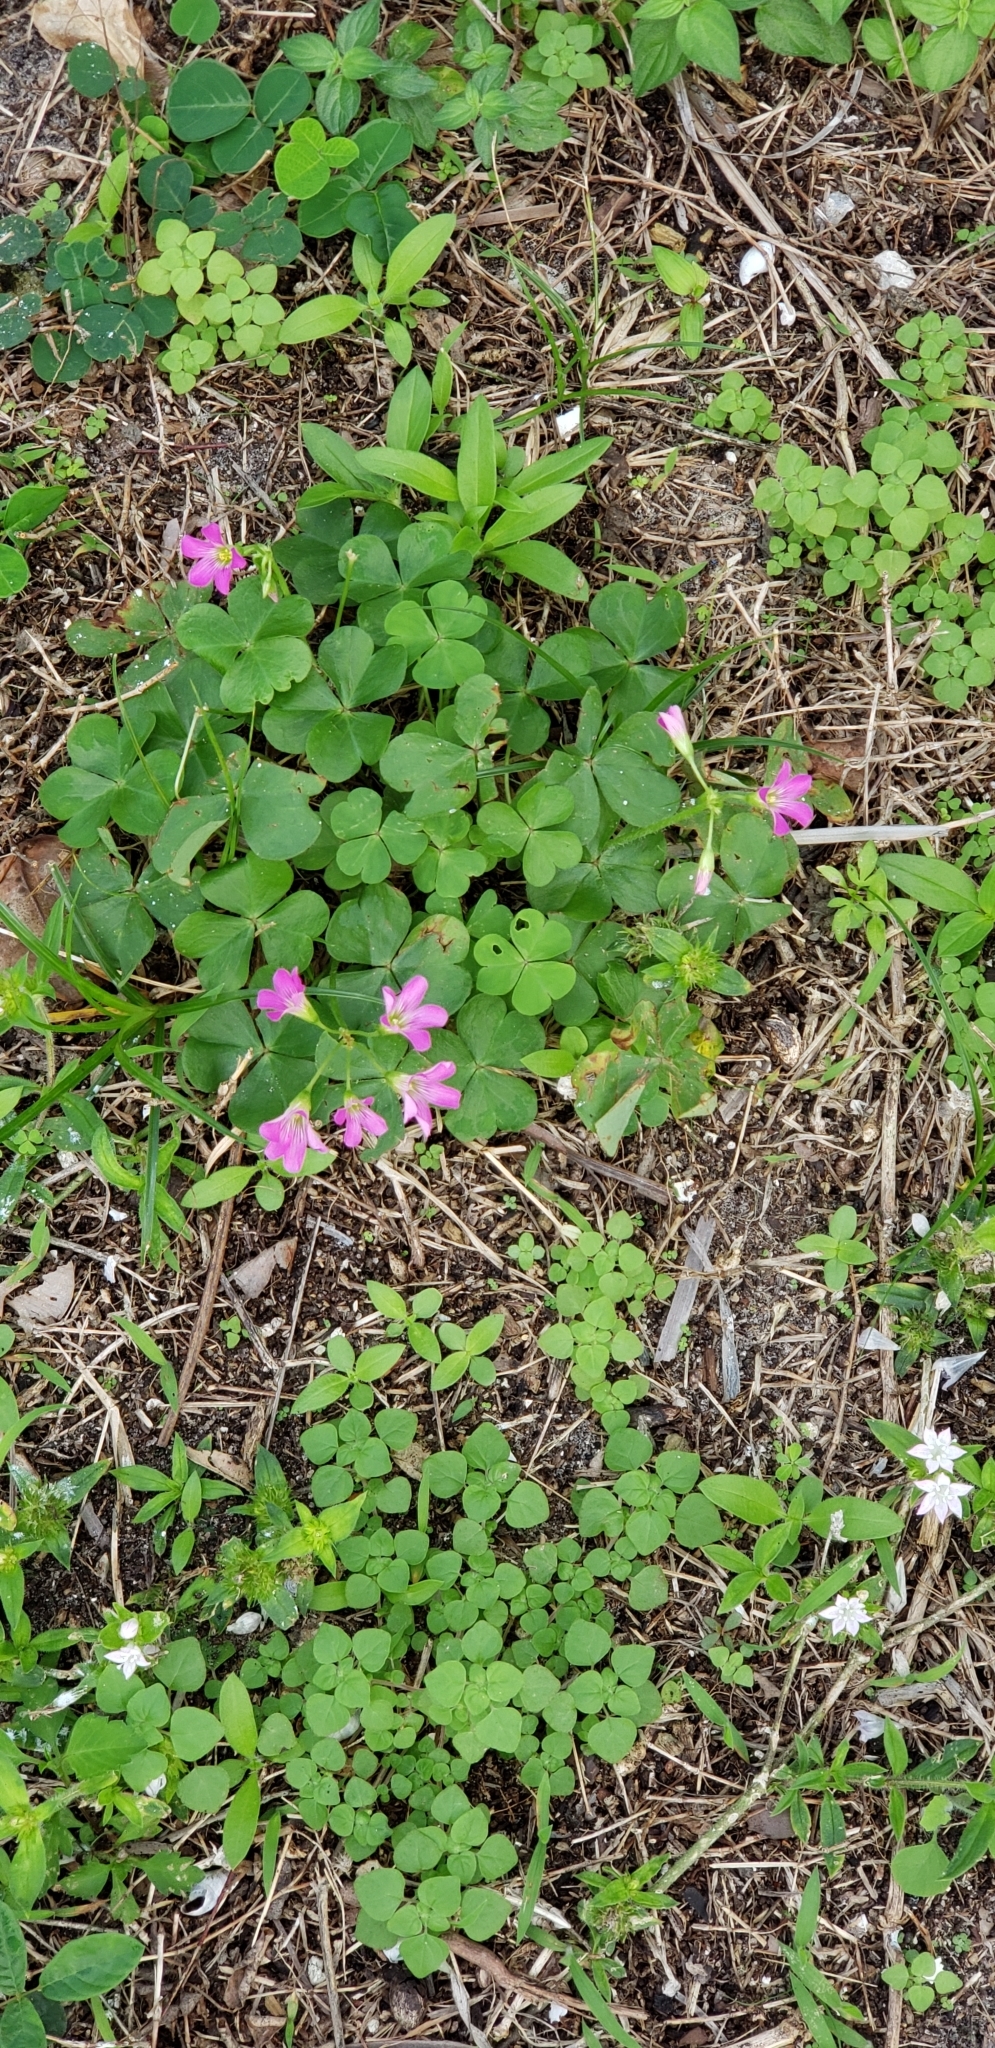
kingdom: Plantae
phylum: Tracheophyta
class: Magnoliopsida
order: Oxalidales
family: Oxalidaceae
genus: Oxalis
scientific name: Oxalis debilis
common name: Large-flowered pink-sorrel
